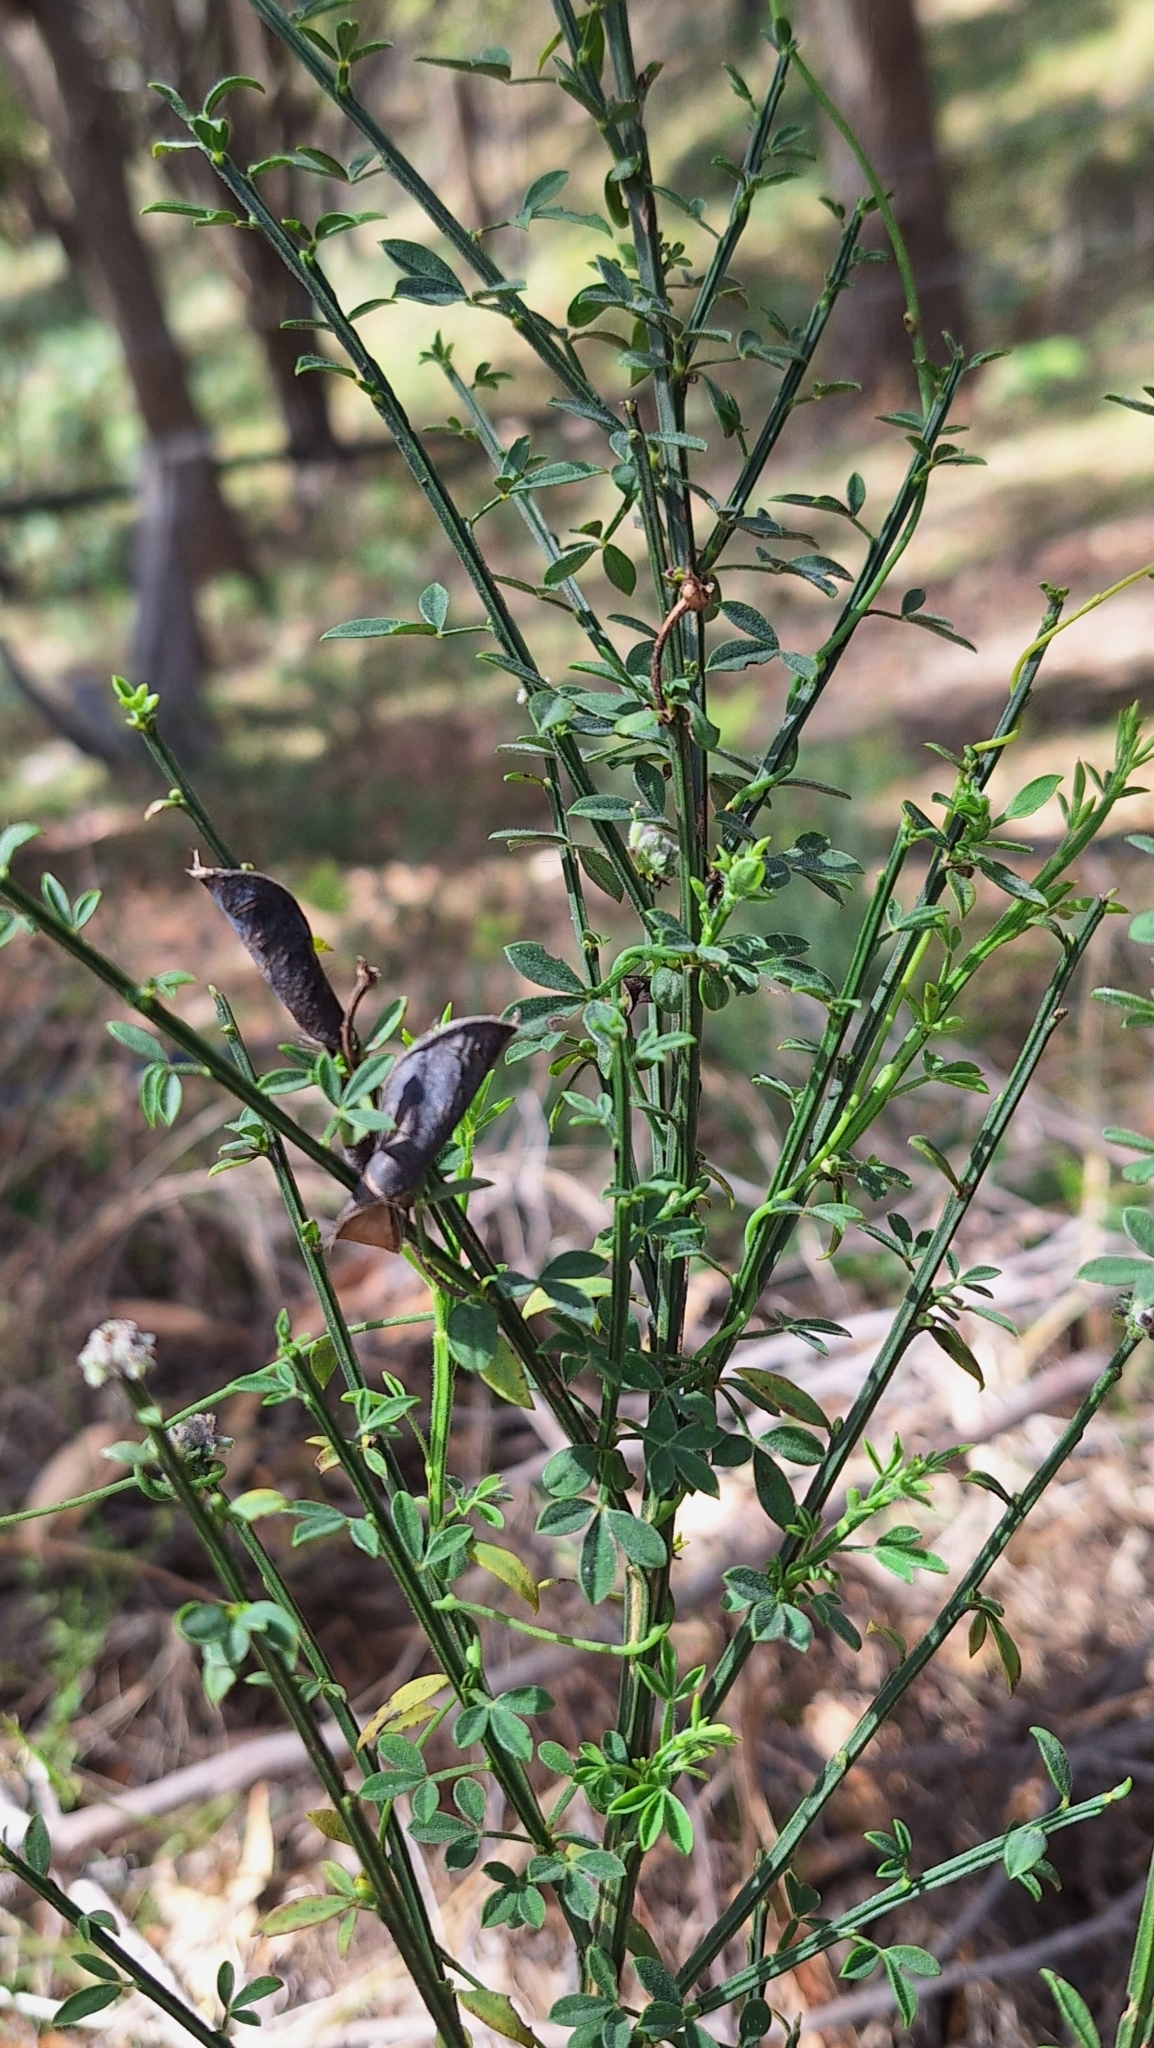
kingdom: Plantae
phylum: Tracheophyta
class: Magnoliopsida
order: Fabales
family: Fabaceae
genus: Cytisus
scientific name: Cytisus scoparius
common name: Scotch broom
